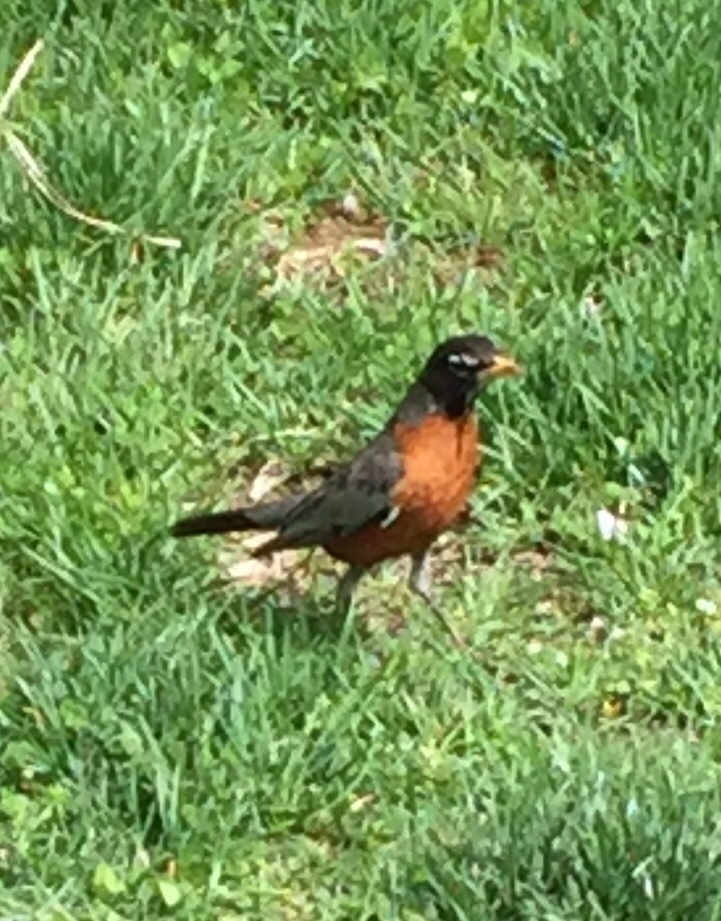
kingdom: Animalia
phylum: Chordata
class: Aves
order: Passeriformes
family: Turdidae
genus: Turdus
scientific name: Turdus migratorius
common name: American robin
